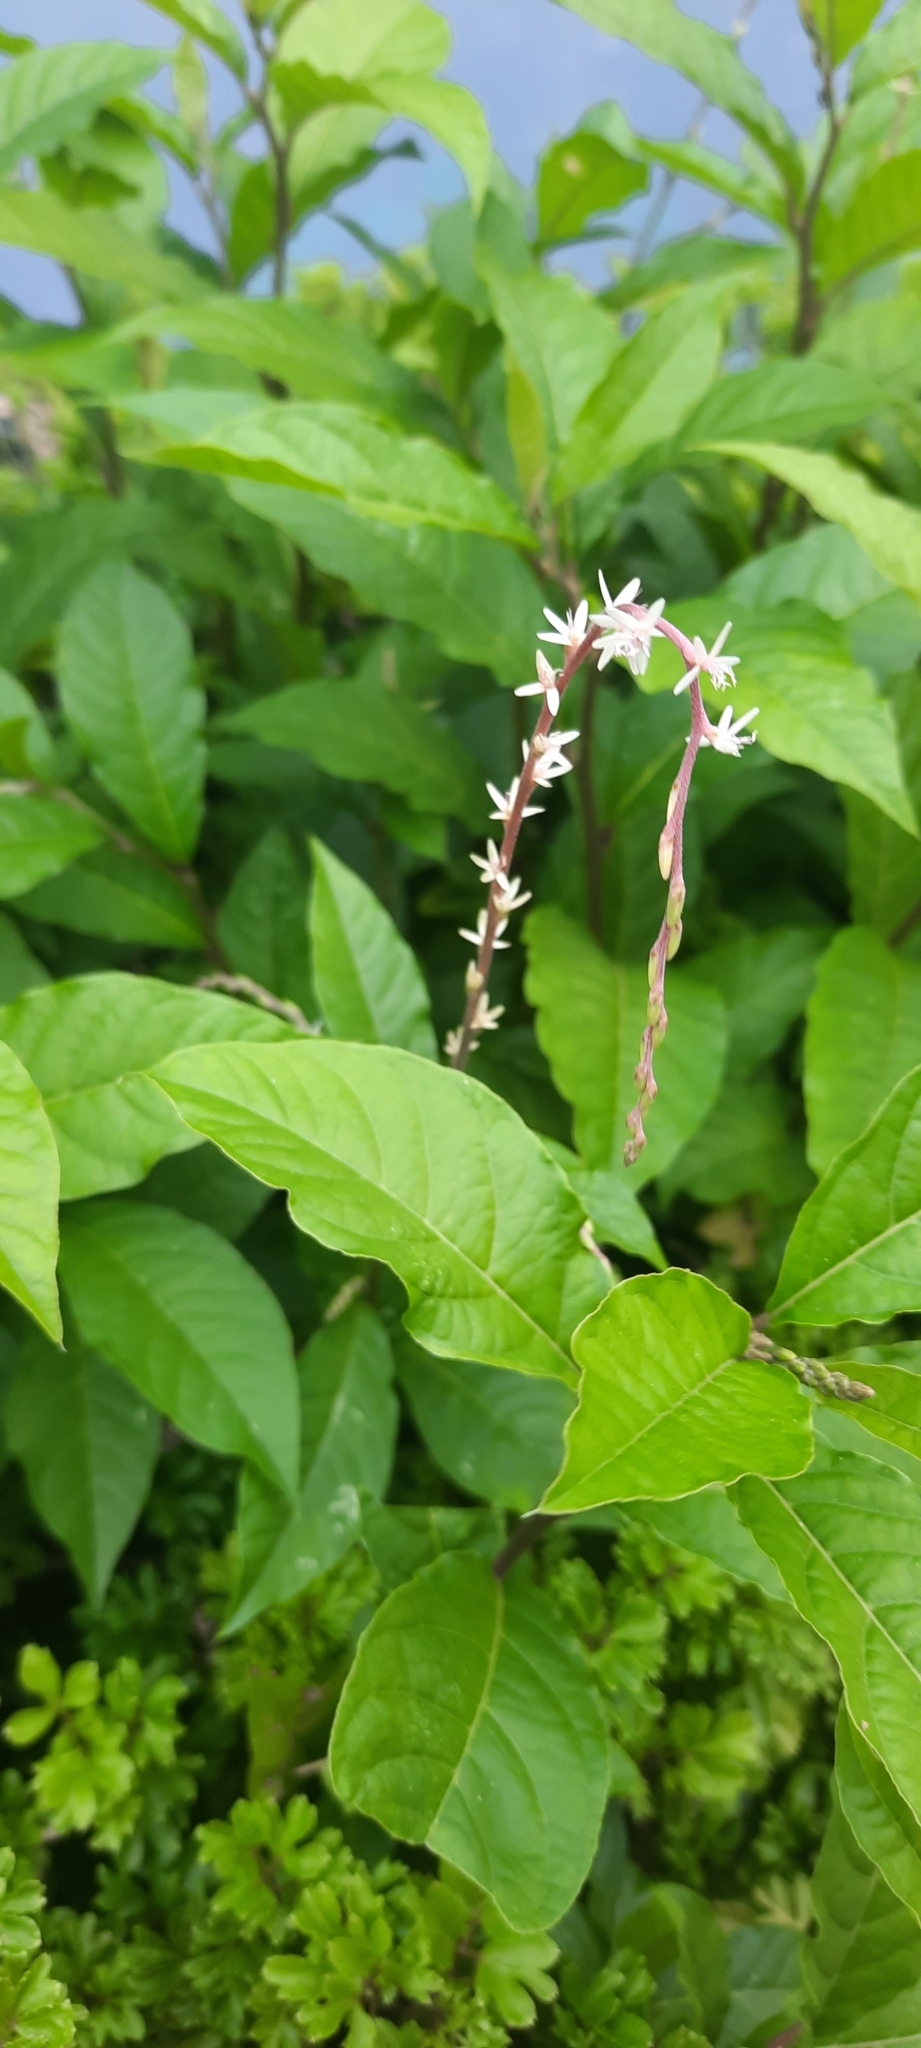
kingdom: Plantae
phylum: Tracheophyta
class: Magnoliopsida
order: Caryophyllales
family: Phytolaccaceae
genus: Petiveria
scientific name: Petiveria alliacea
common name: Garlicweed
